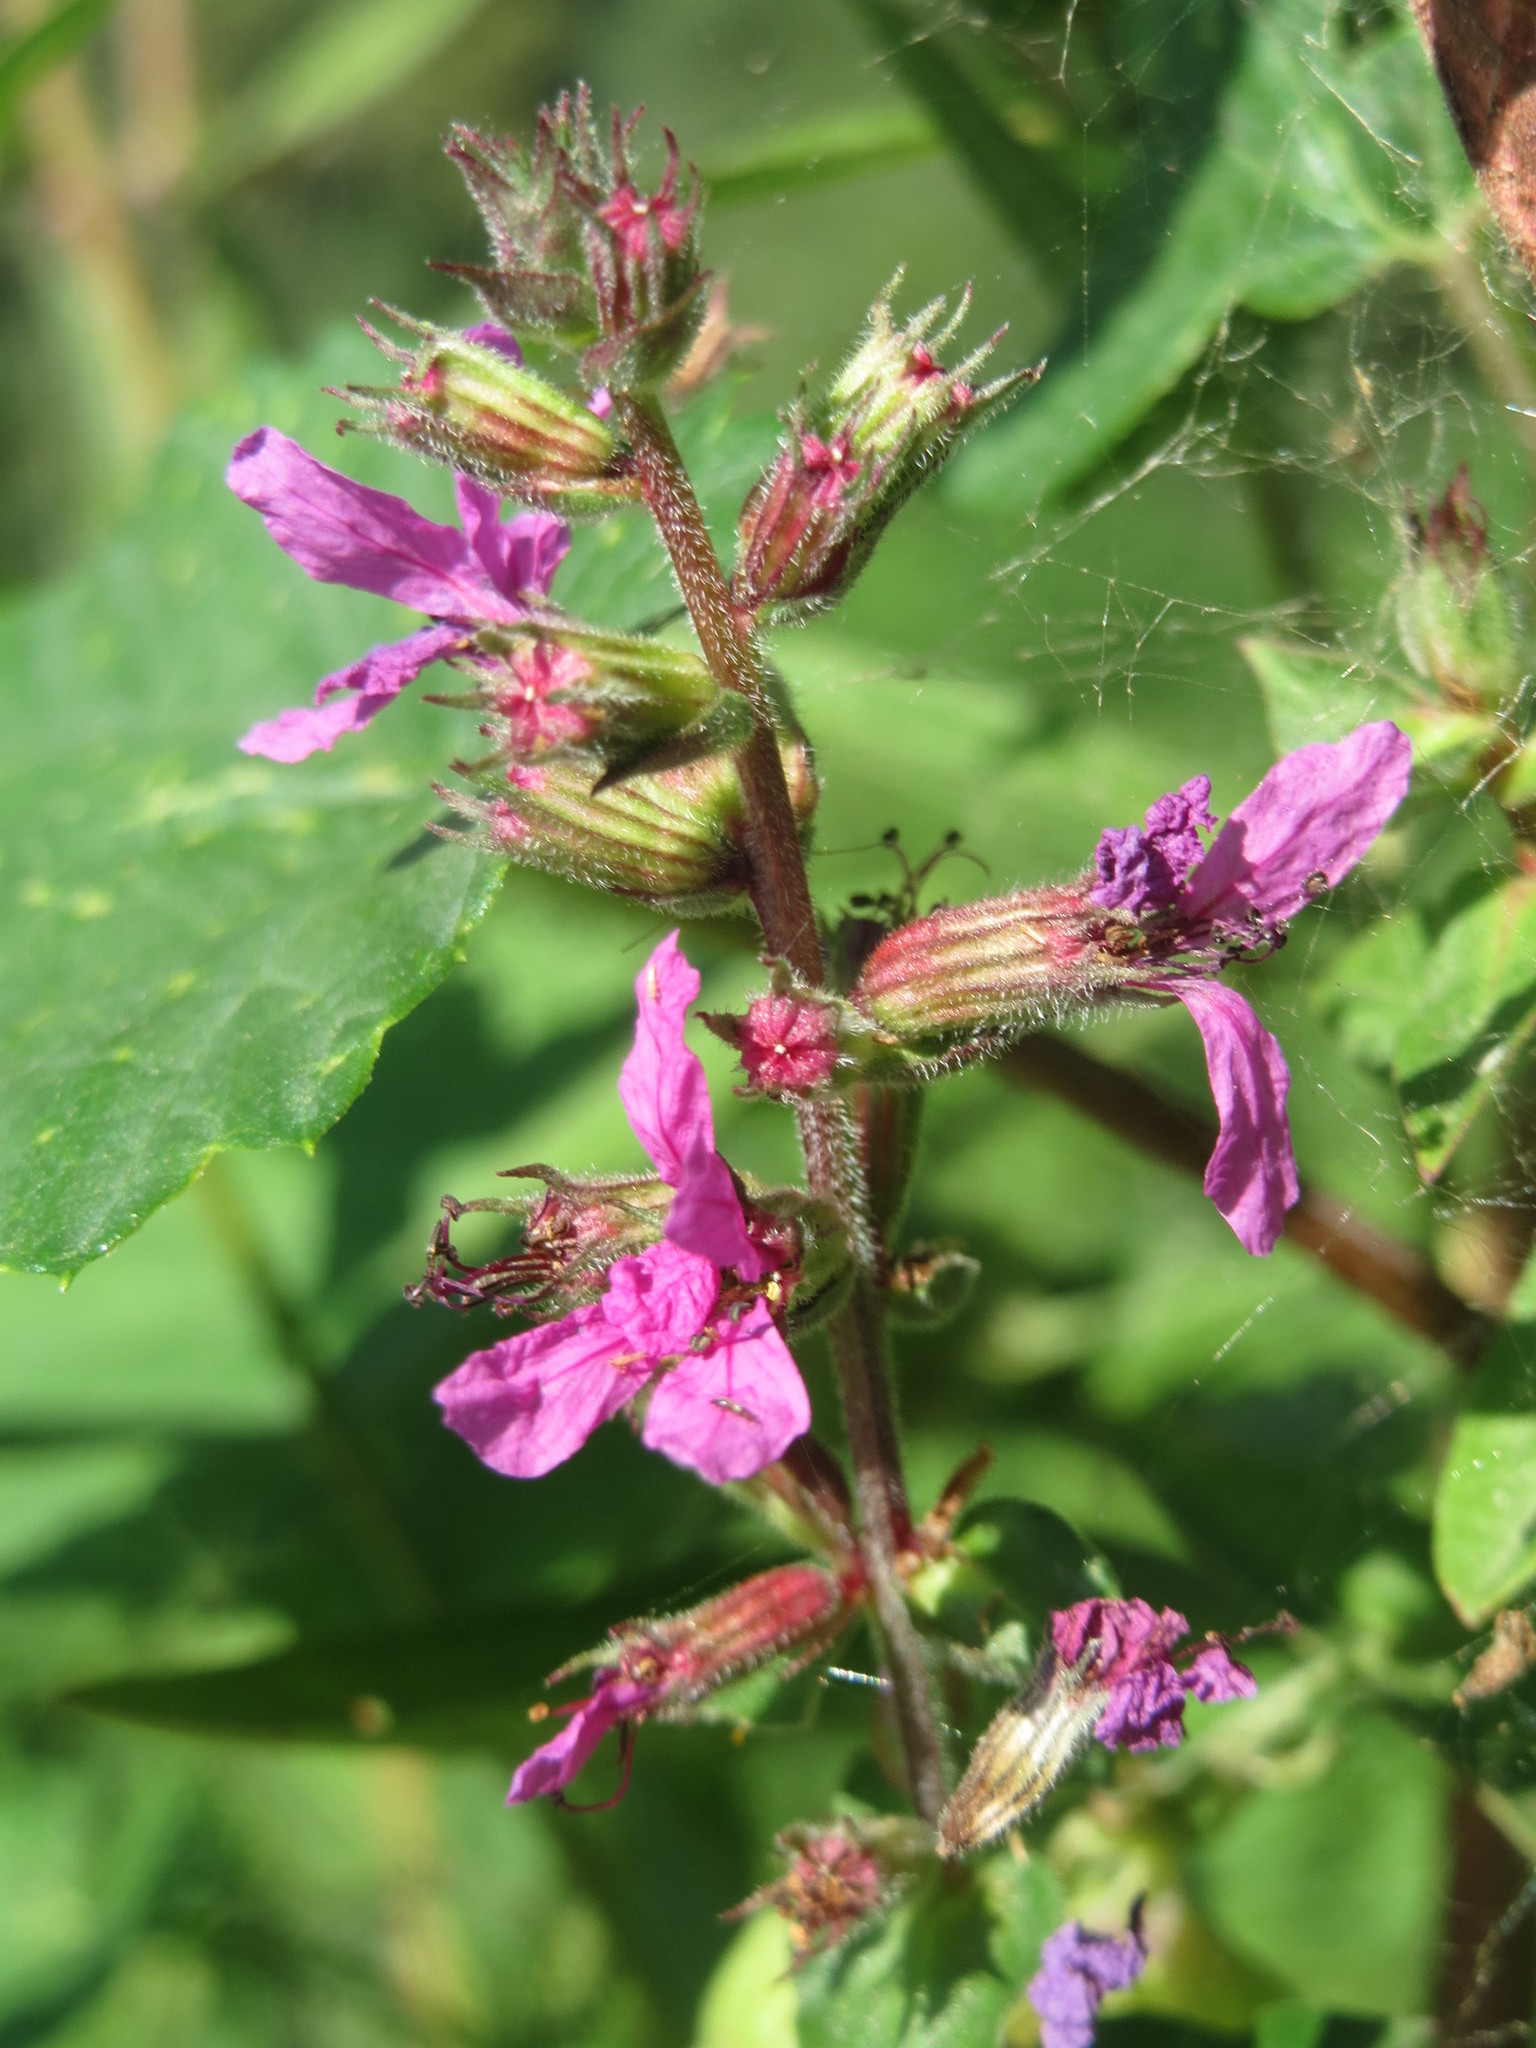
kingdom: Plantae
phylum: Tracheophyta
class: Magnoliopsida
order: Myrtales
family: Lythraceae
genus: Lythrum
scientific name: Lythrum salicaria
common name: Purple loosestrife
